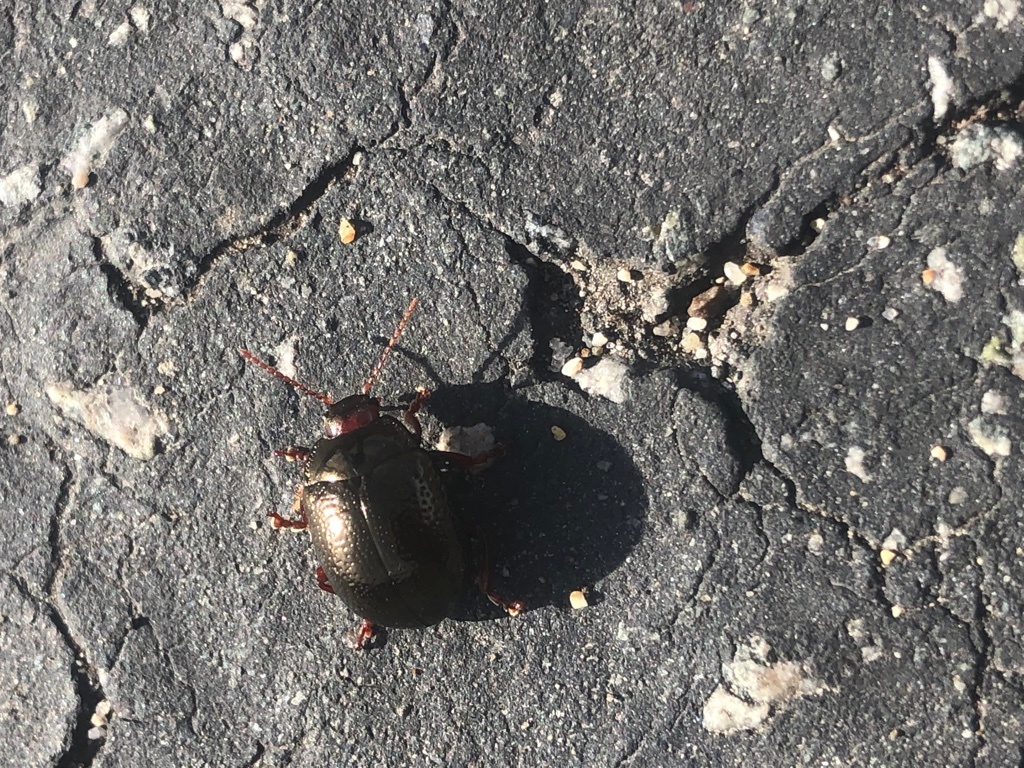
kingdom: Animalia
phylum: Arthropoda
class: Insecta
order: Coleoptera
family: Chrysomelidae
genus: Chrysolina
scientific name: Chrysolina bankii
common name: Leaf beetle
